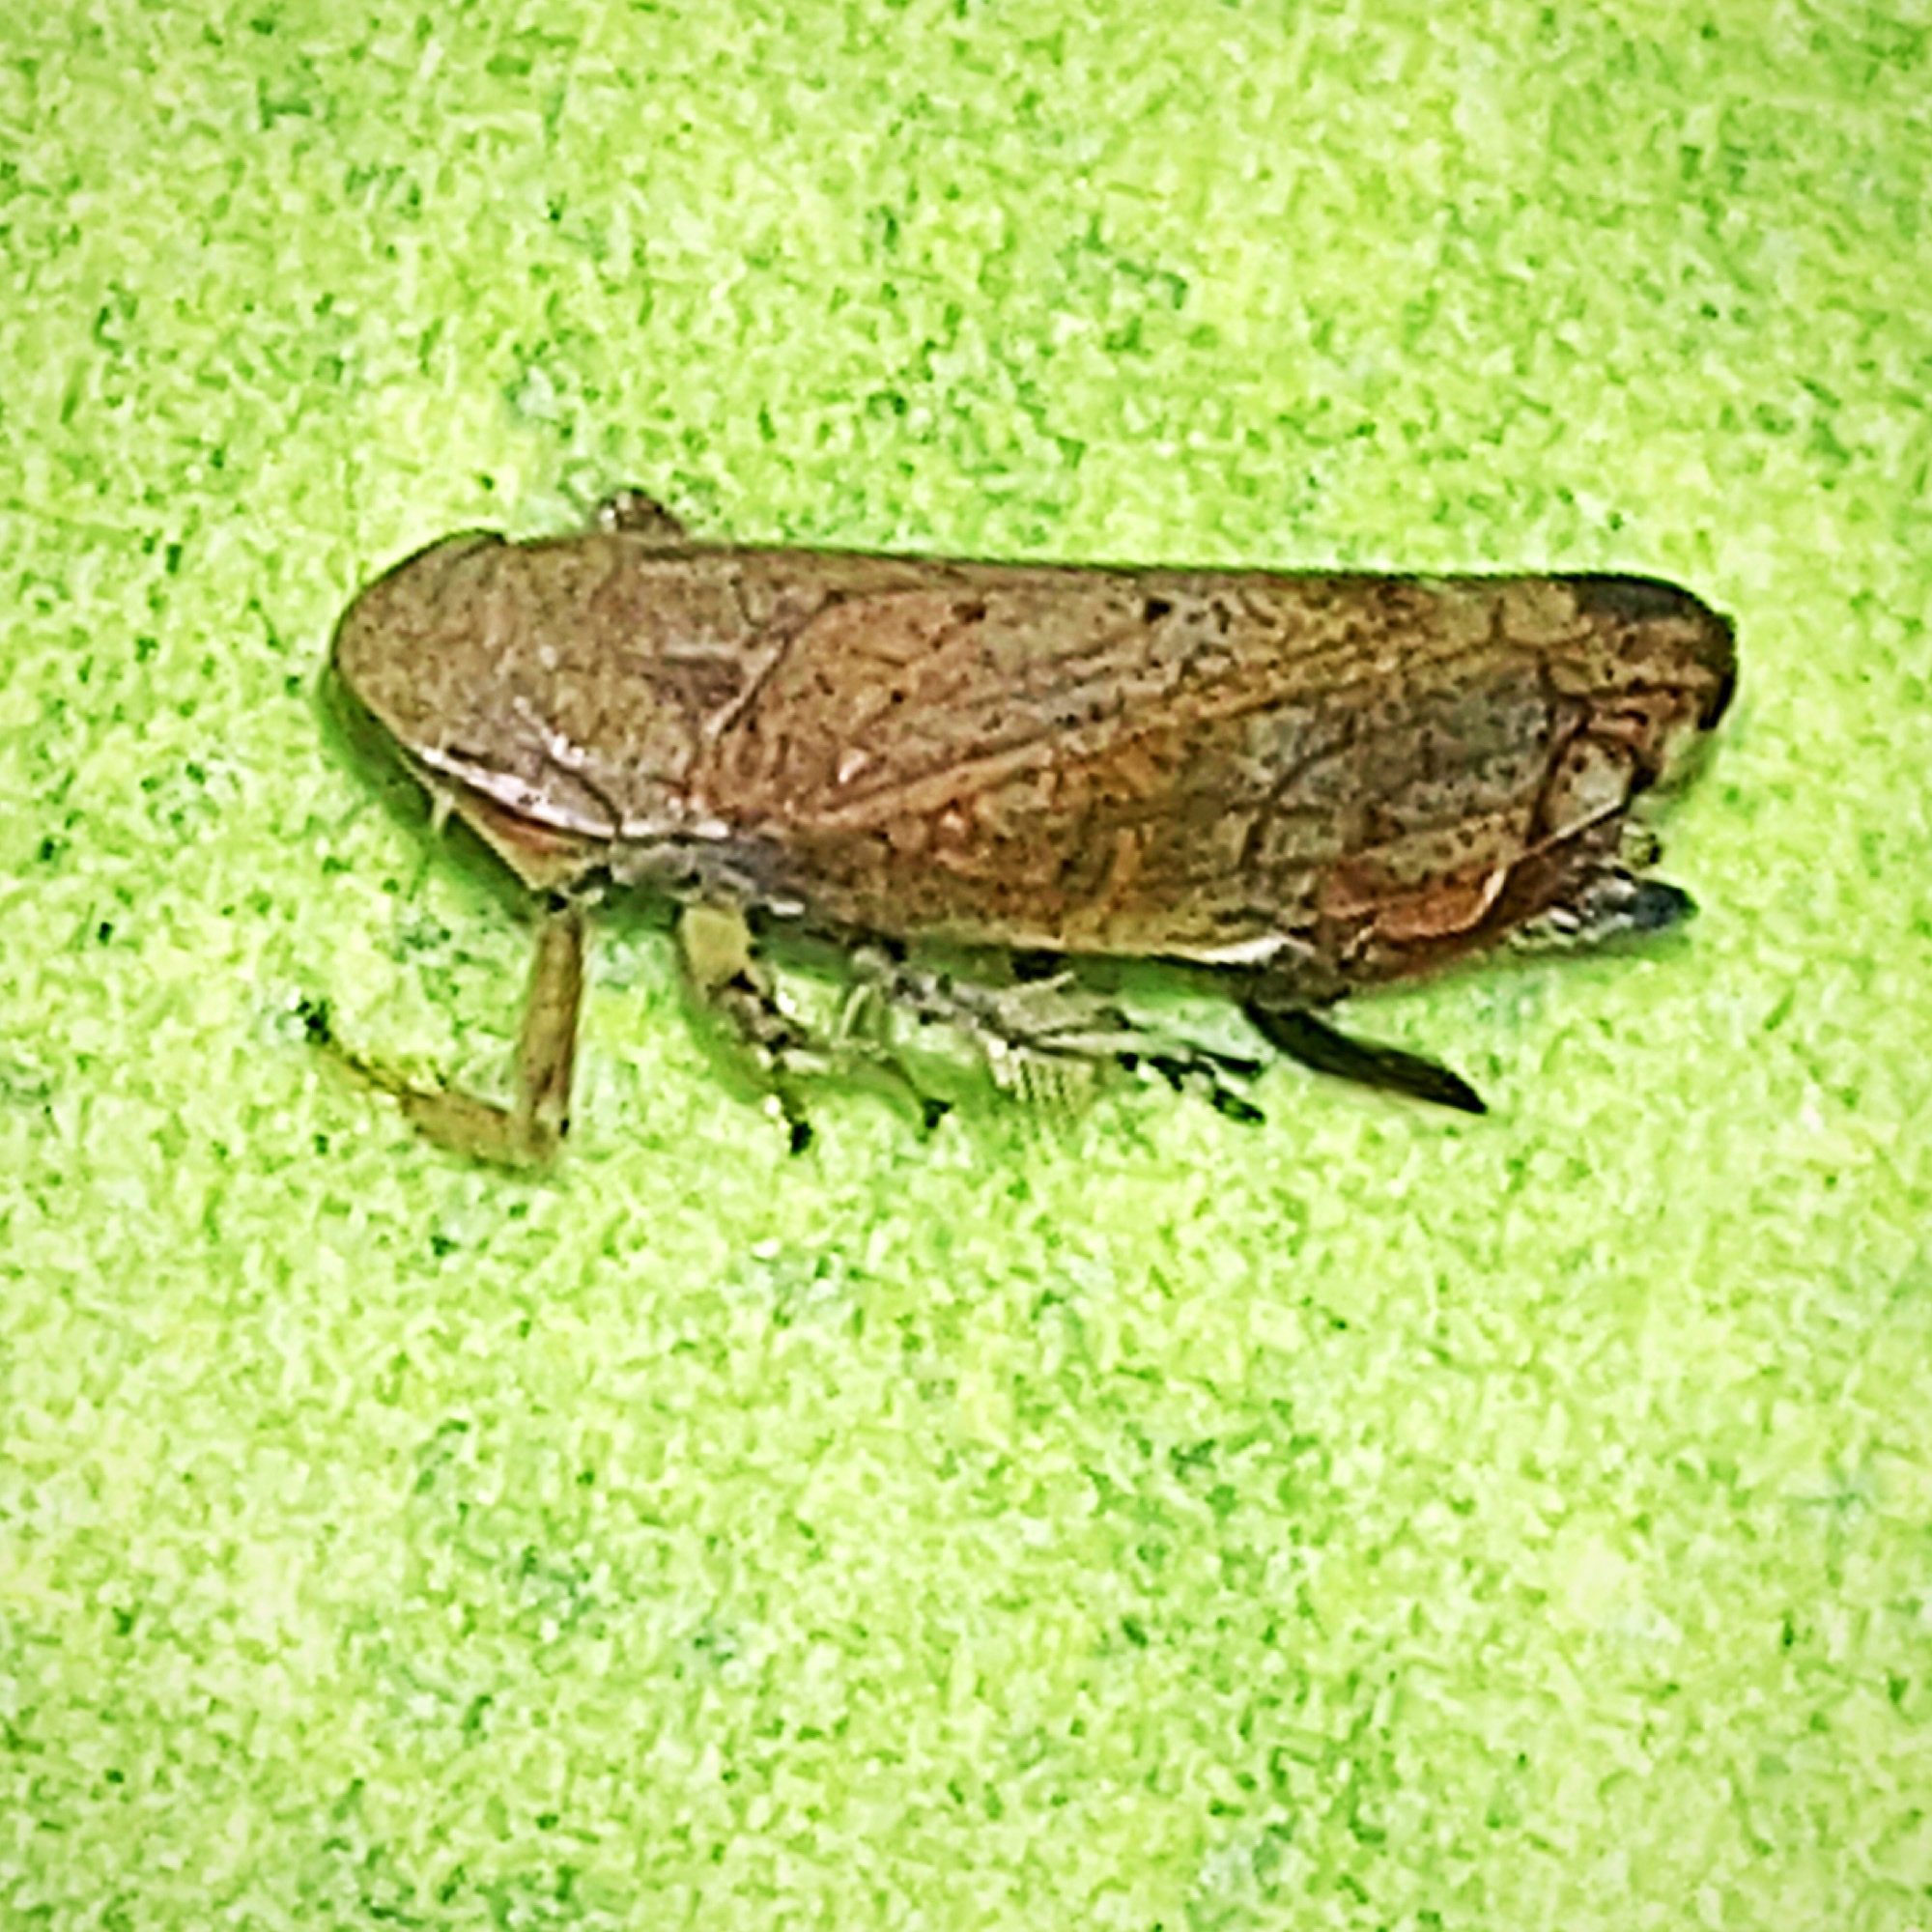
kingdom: Animalia
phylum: Arthropoda
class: Insecta
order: Hemiptera
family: Cicadellidae
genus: Fieberiella
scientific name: Fieberiella florii
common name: Flor’s leafhopper
